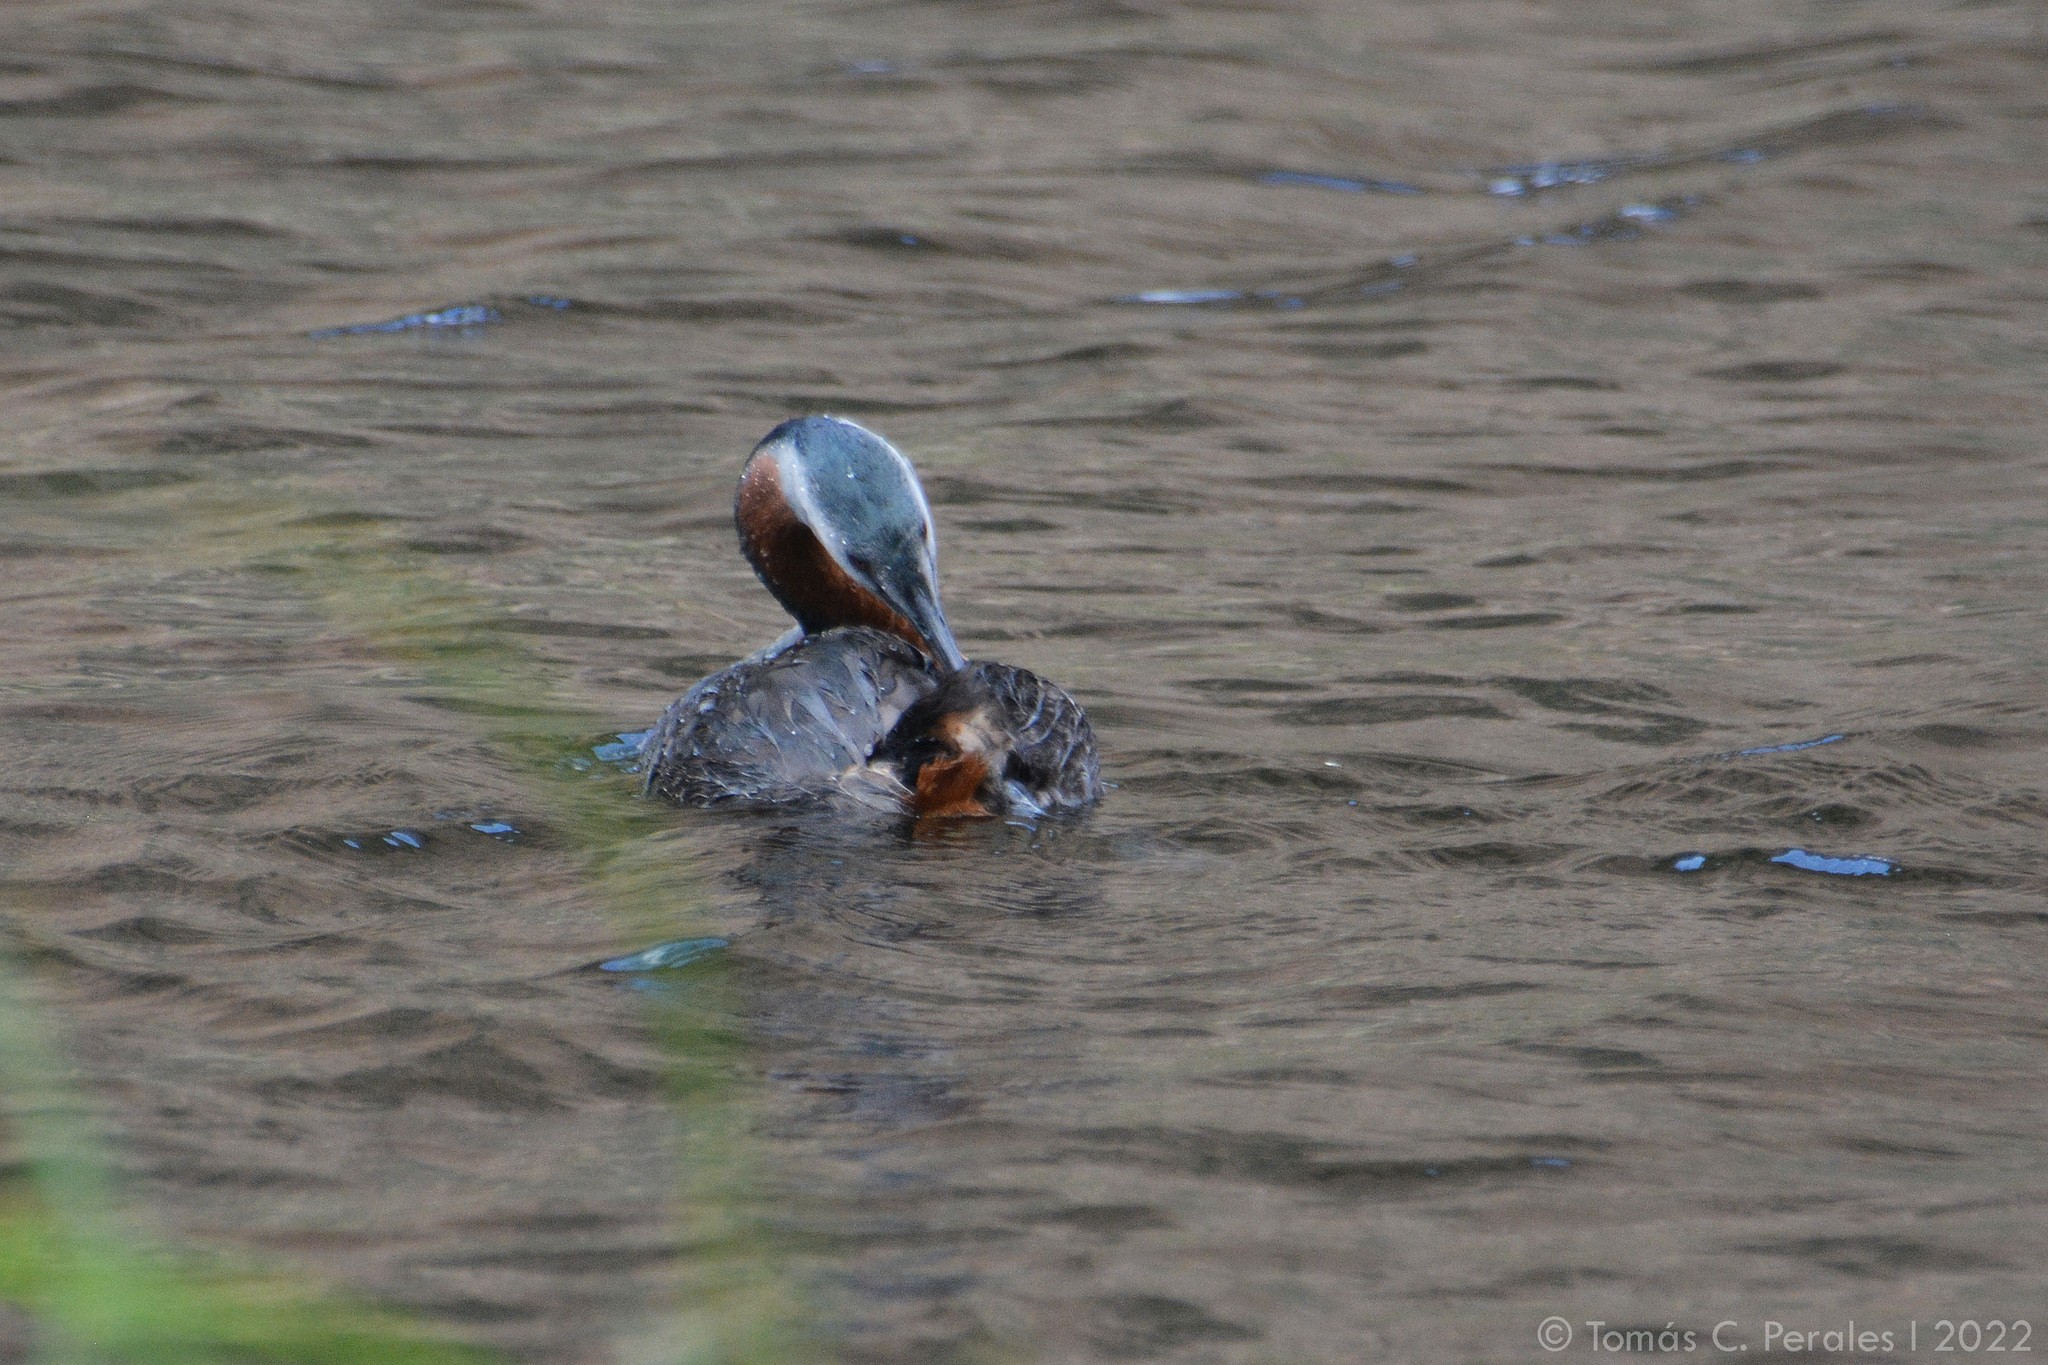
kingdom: Animalia
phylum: Chordata
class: Aves
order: Podicipediformes
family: Podicipedidae
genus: Podiceps
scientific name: Podiceps major
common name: Great grebe
